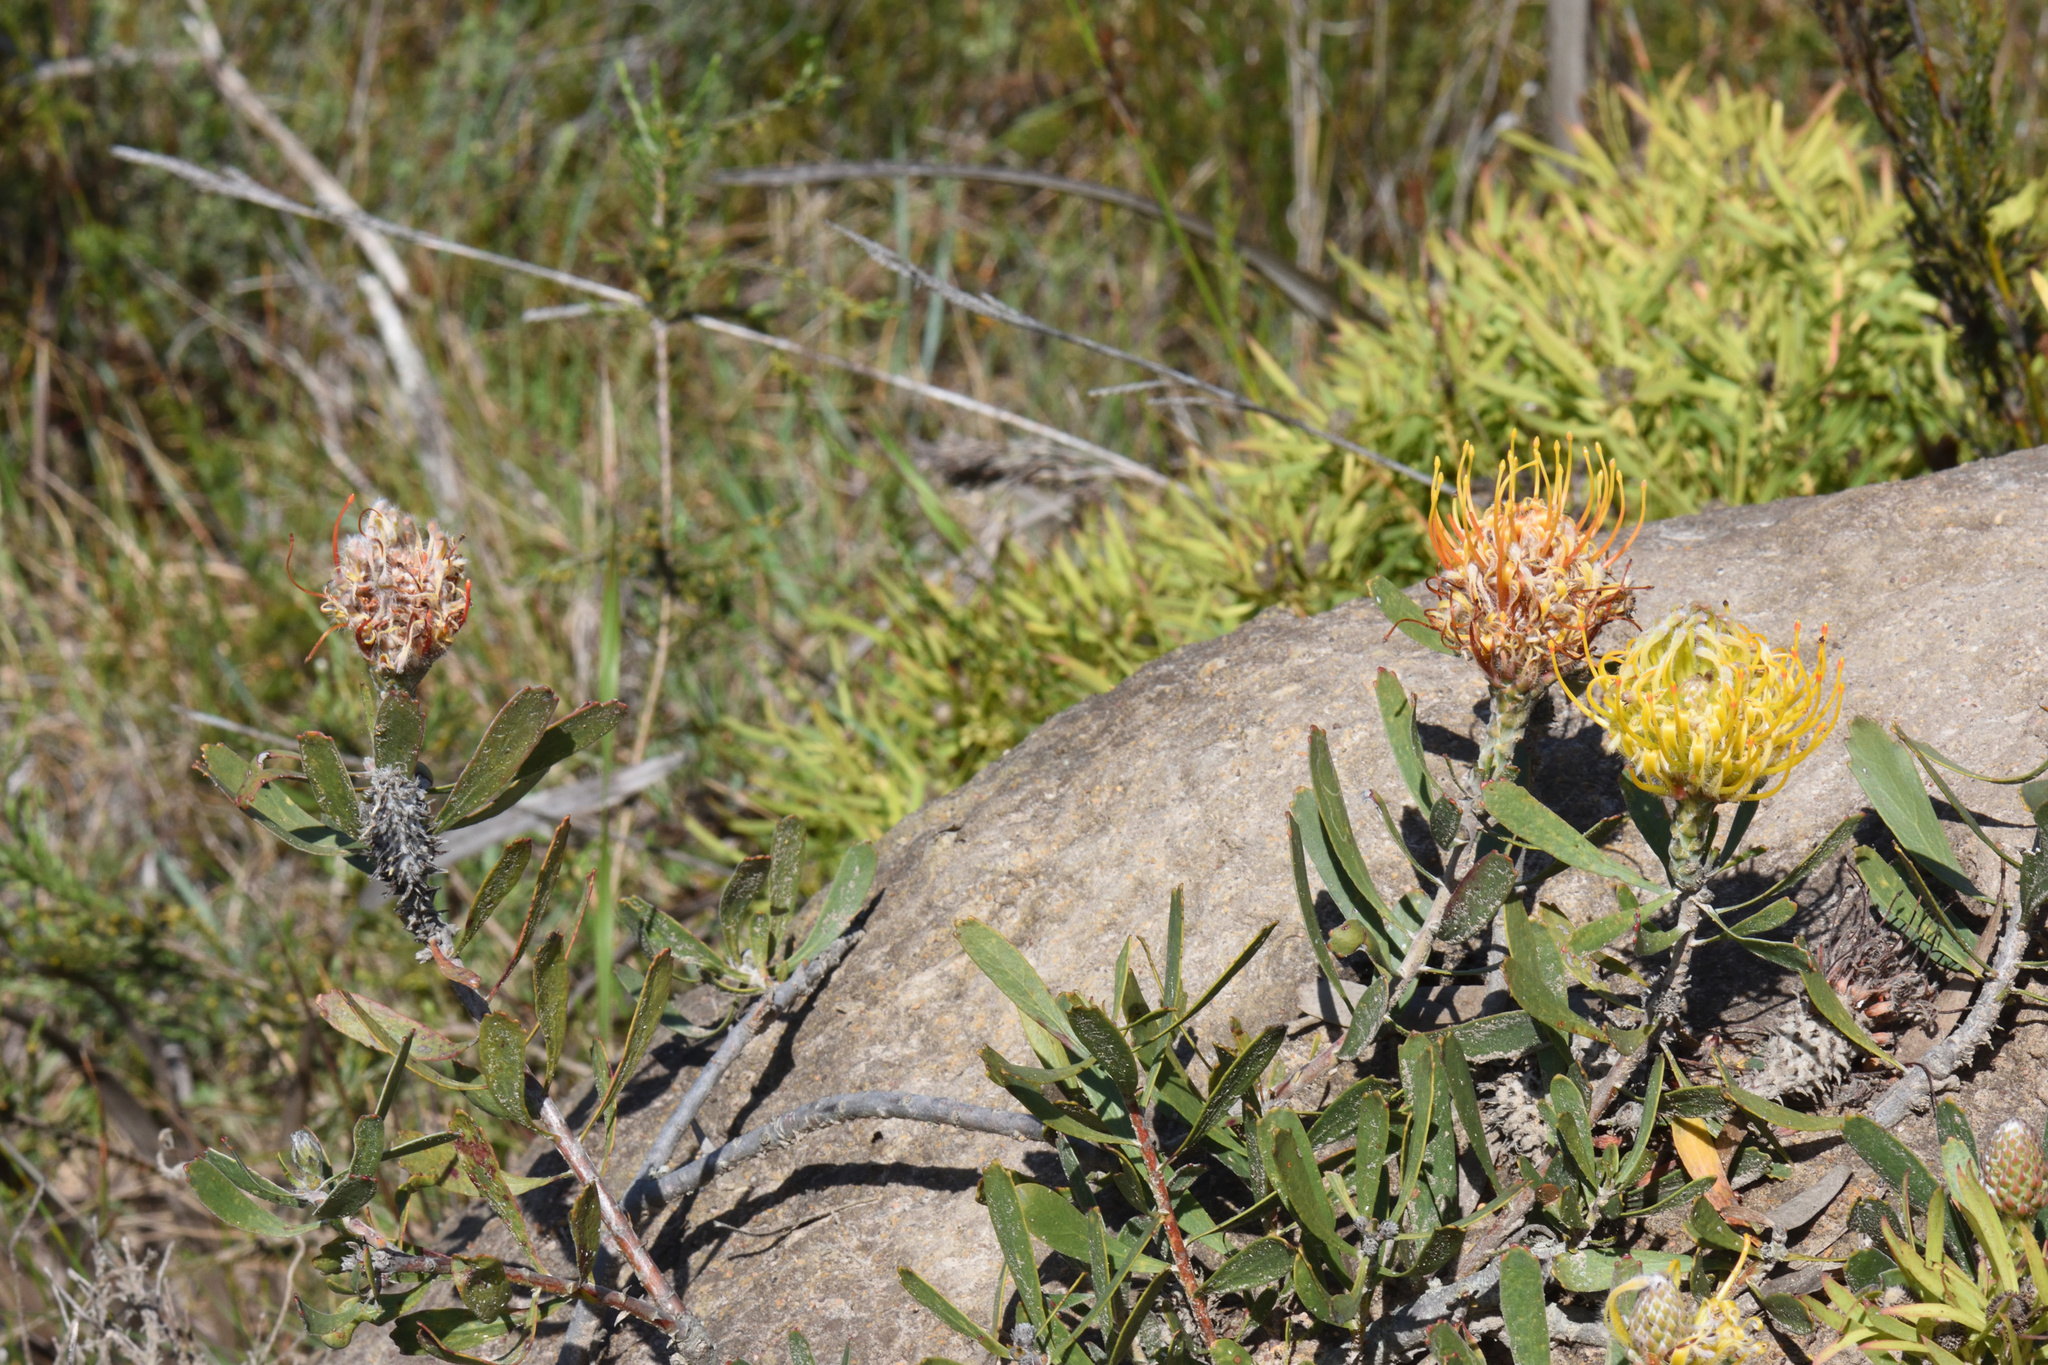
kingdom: Plantae
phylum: Tracheophyta
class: Magnoliopsida
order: Proteales
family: Proteaceae
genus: Leucospermum
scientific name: Leucospermum cuneiforme
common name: Common pincushion
